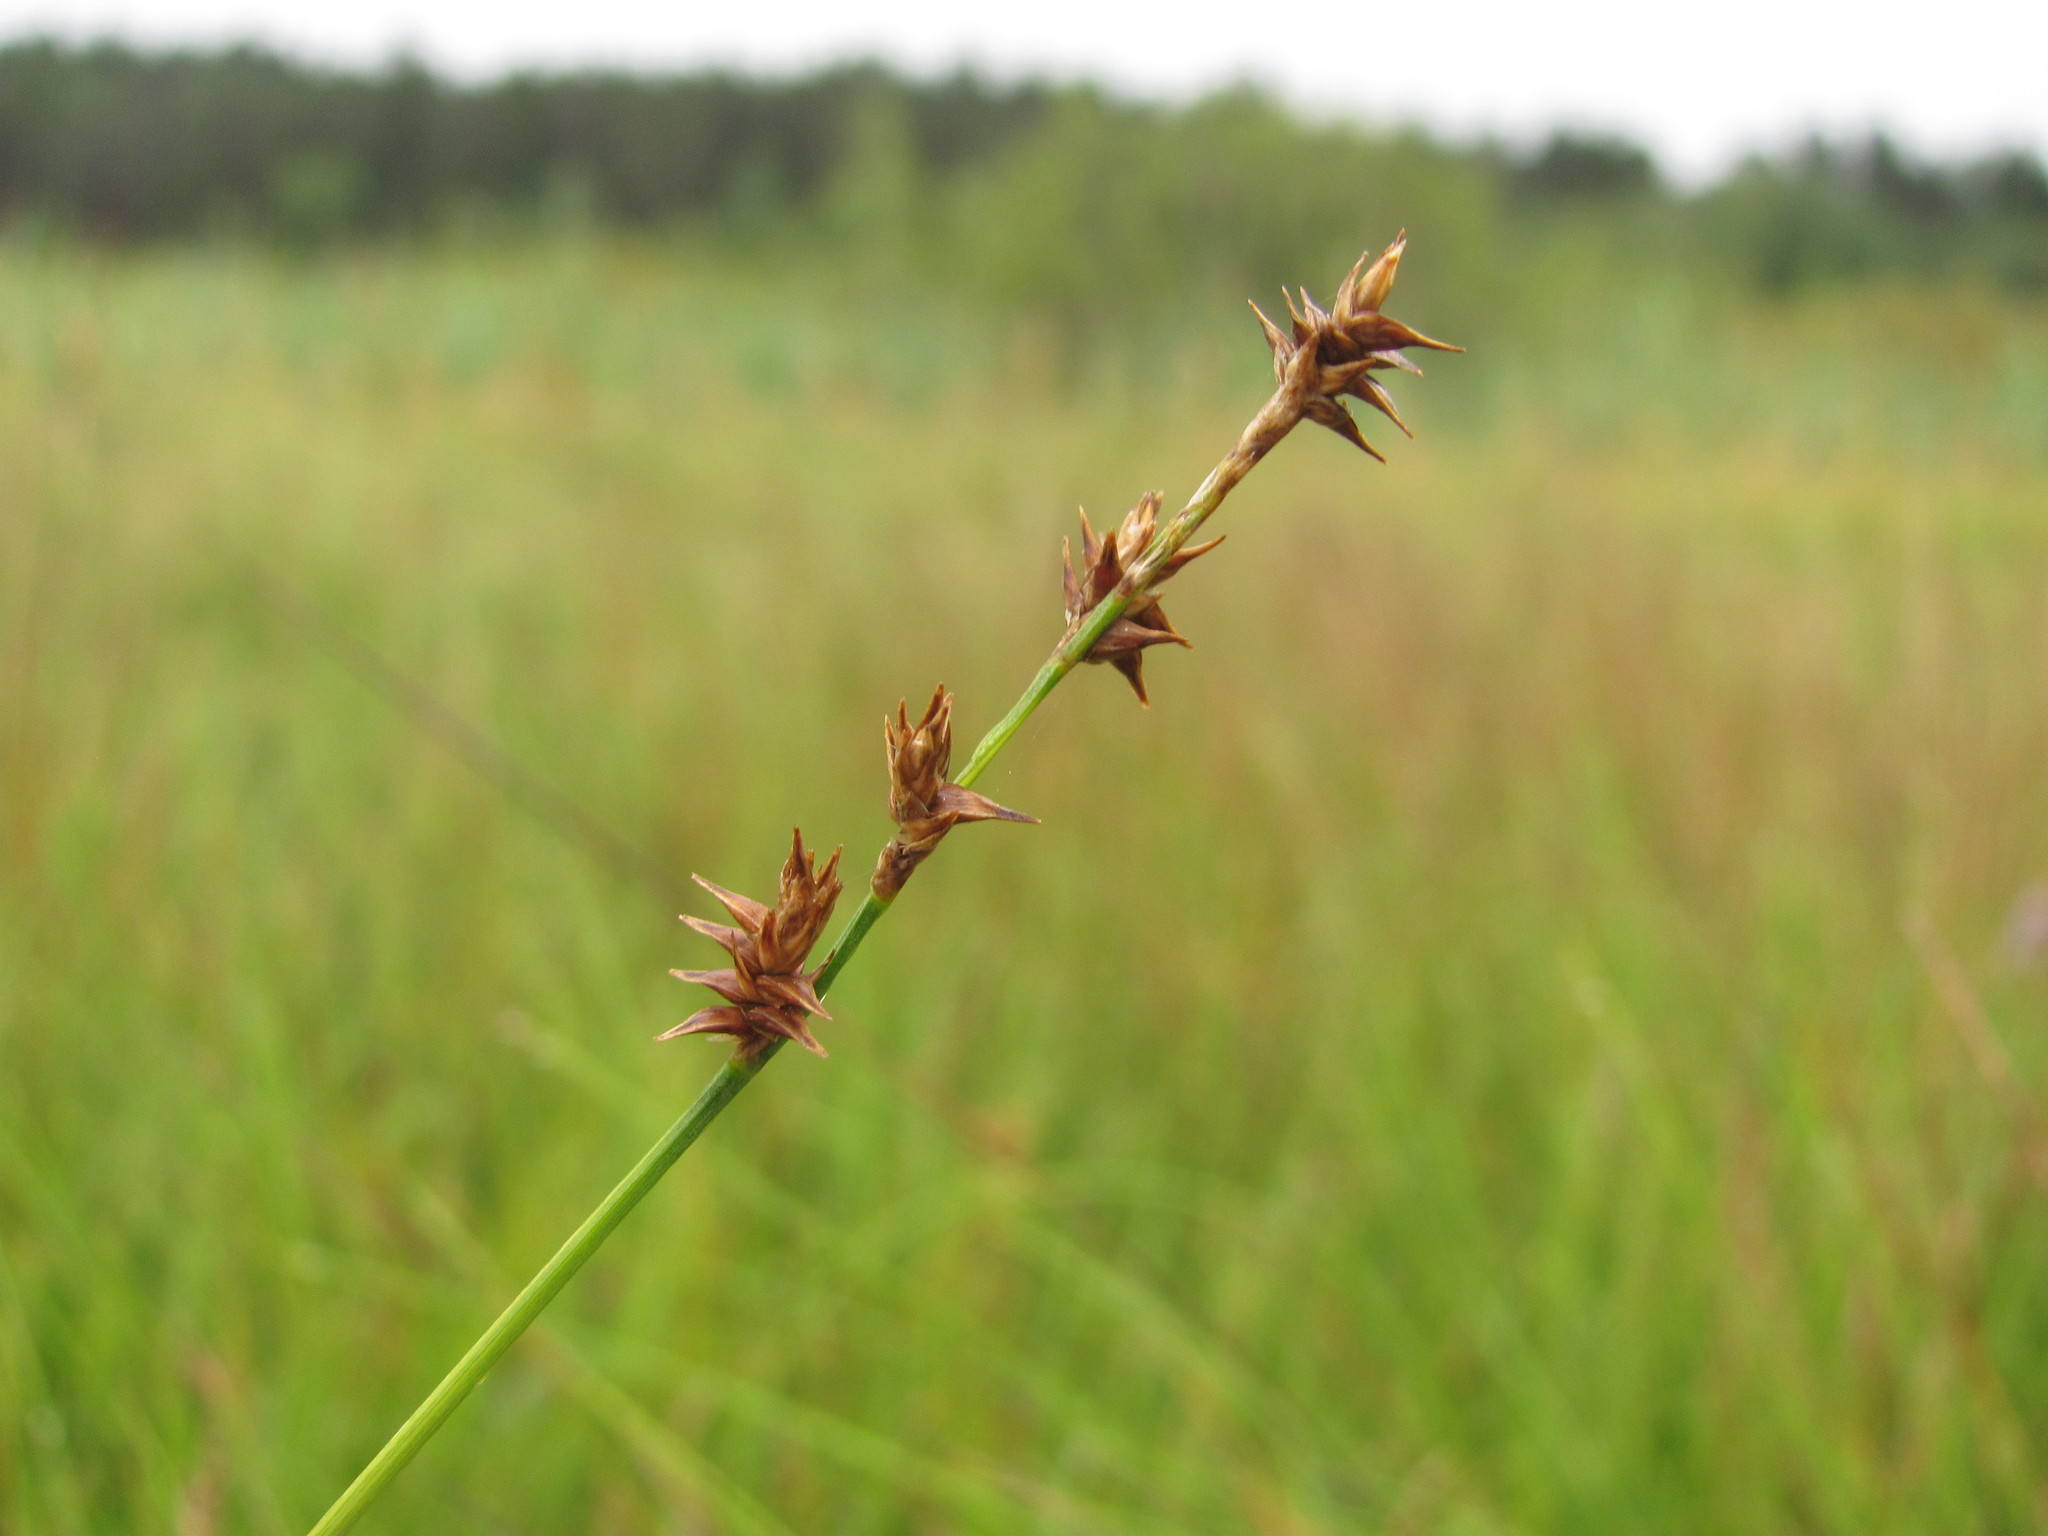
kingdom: Plantae
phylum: Tracheophyta
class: Liliopsida
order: Poales
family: Cyperaceae
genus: Carex
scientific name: Carex echinata
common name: Star sedge
